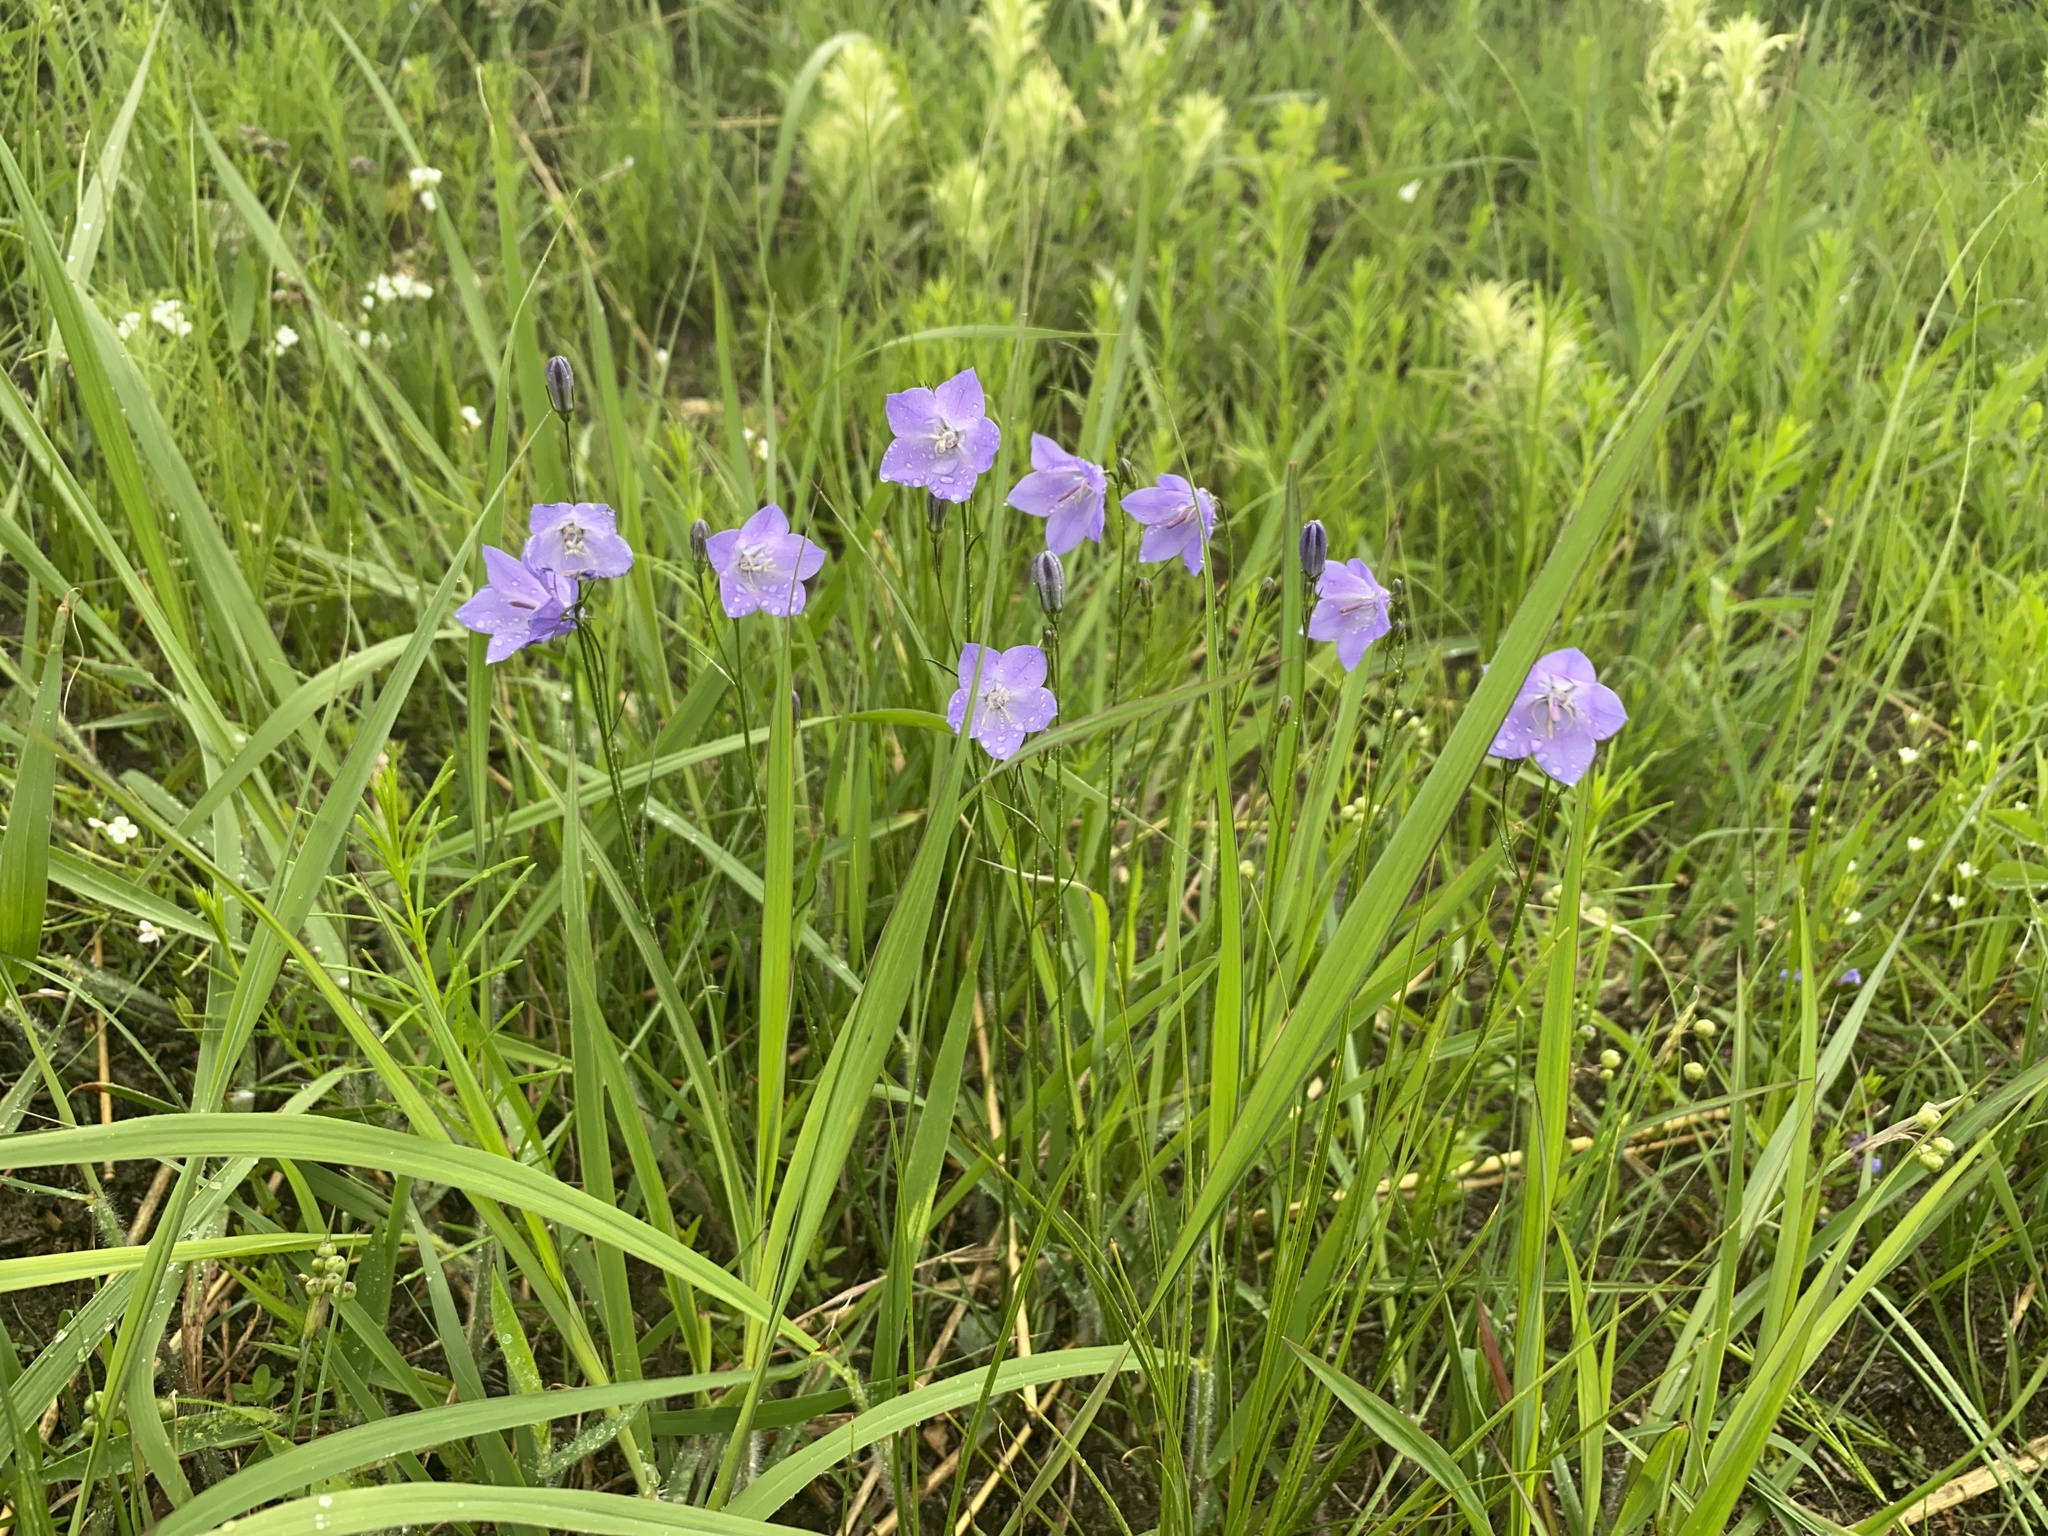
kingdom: Plantae
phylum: Tracheophyta
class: Magnoliopsida
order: Asterales
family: Campanulaceae
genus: Campanula
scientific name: Campanula intercedens
